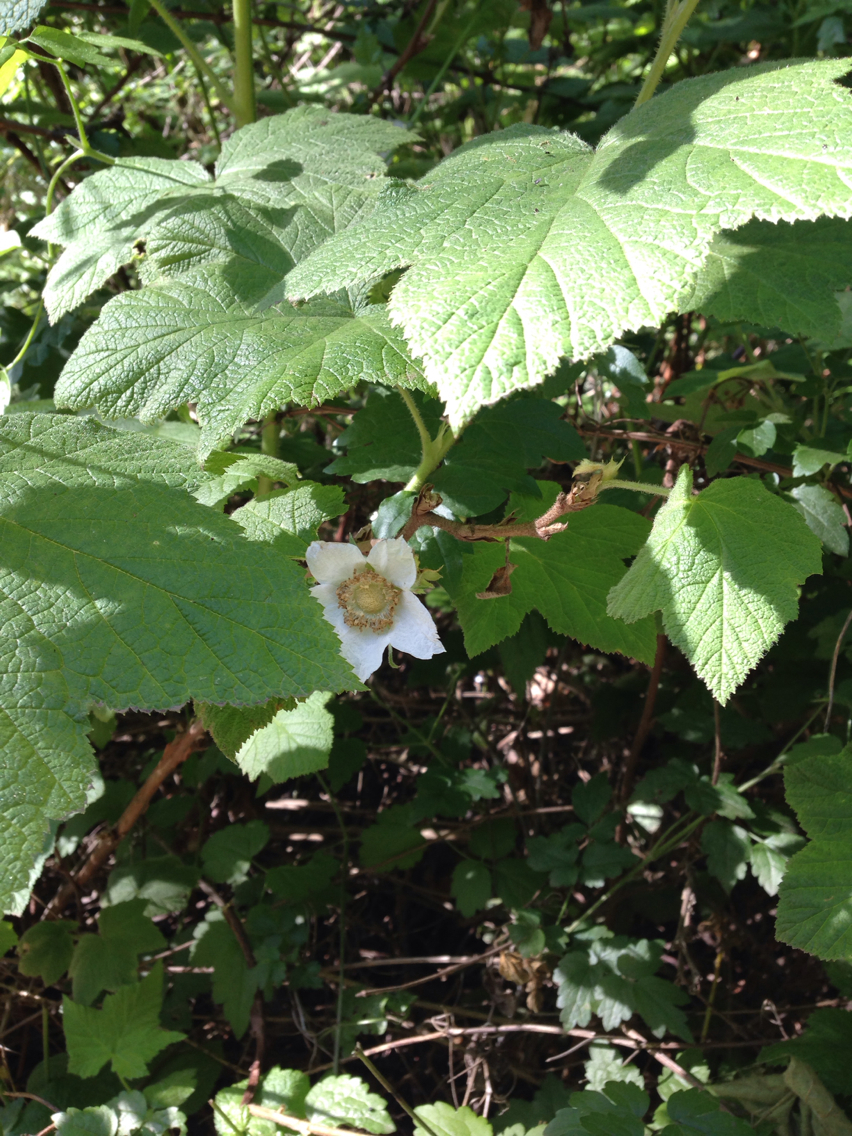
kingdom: Plantae
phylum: Tracheophyta
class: Magnoliopsida
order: Rosales
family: Rosaceae
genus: Rubus
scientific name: Rubus parviflorus
